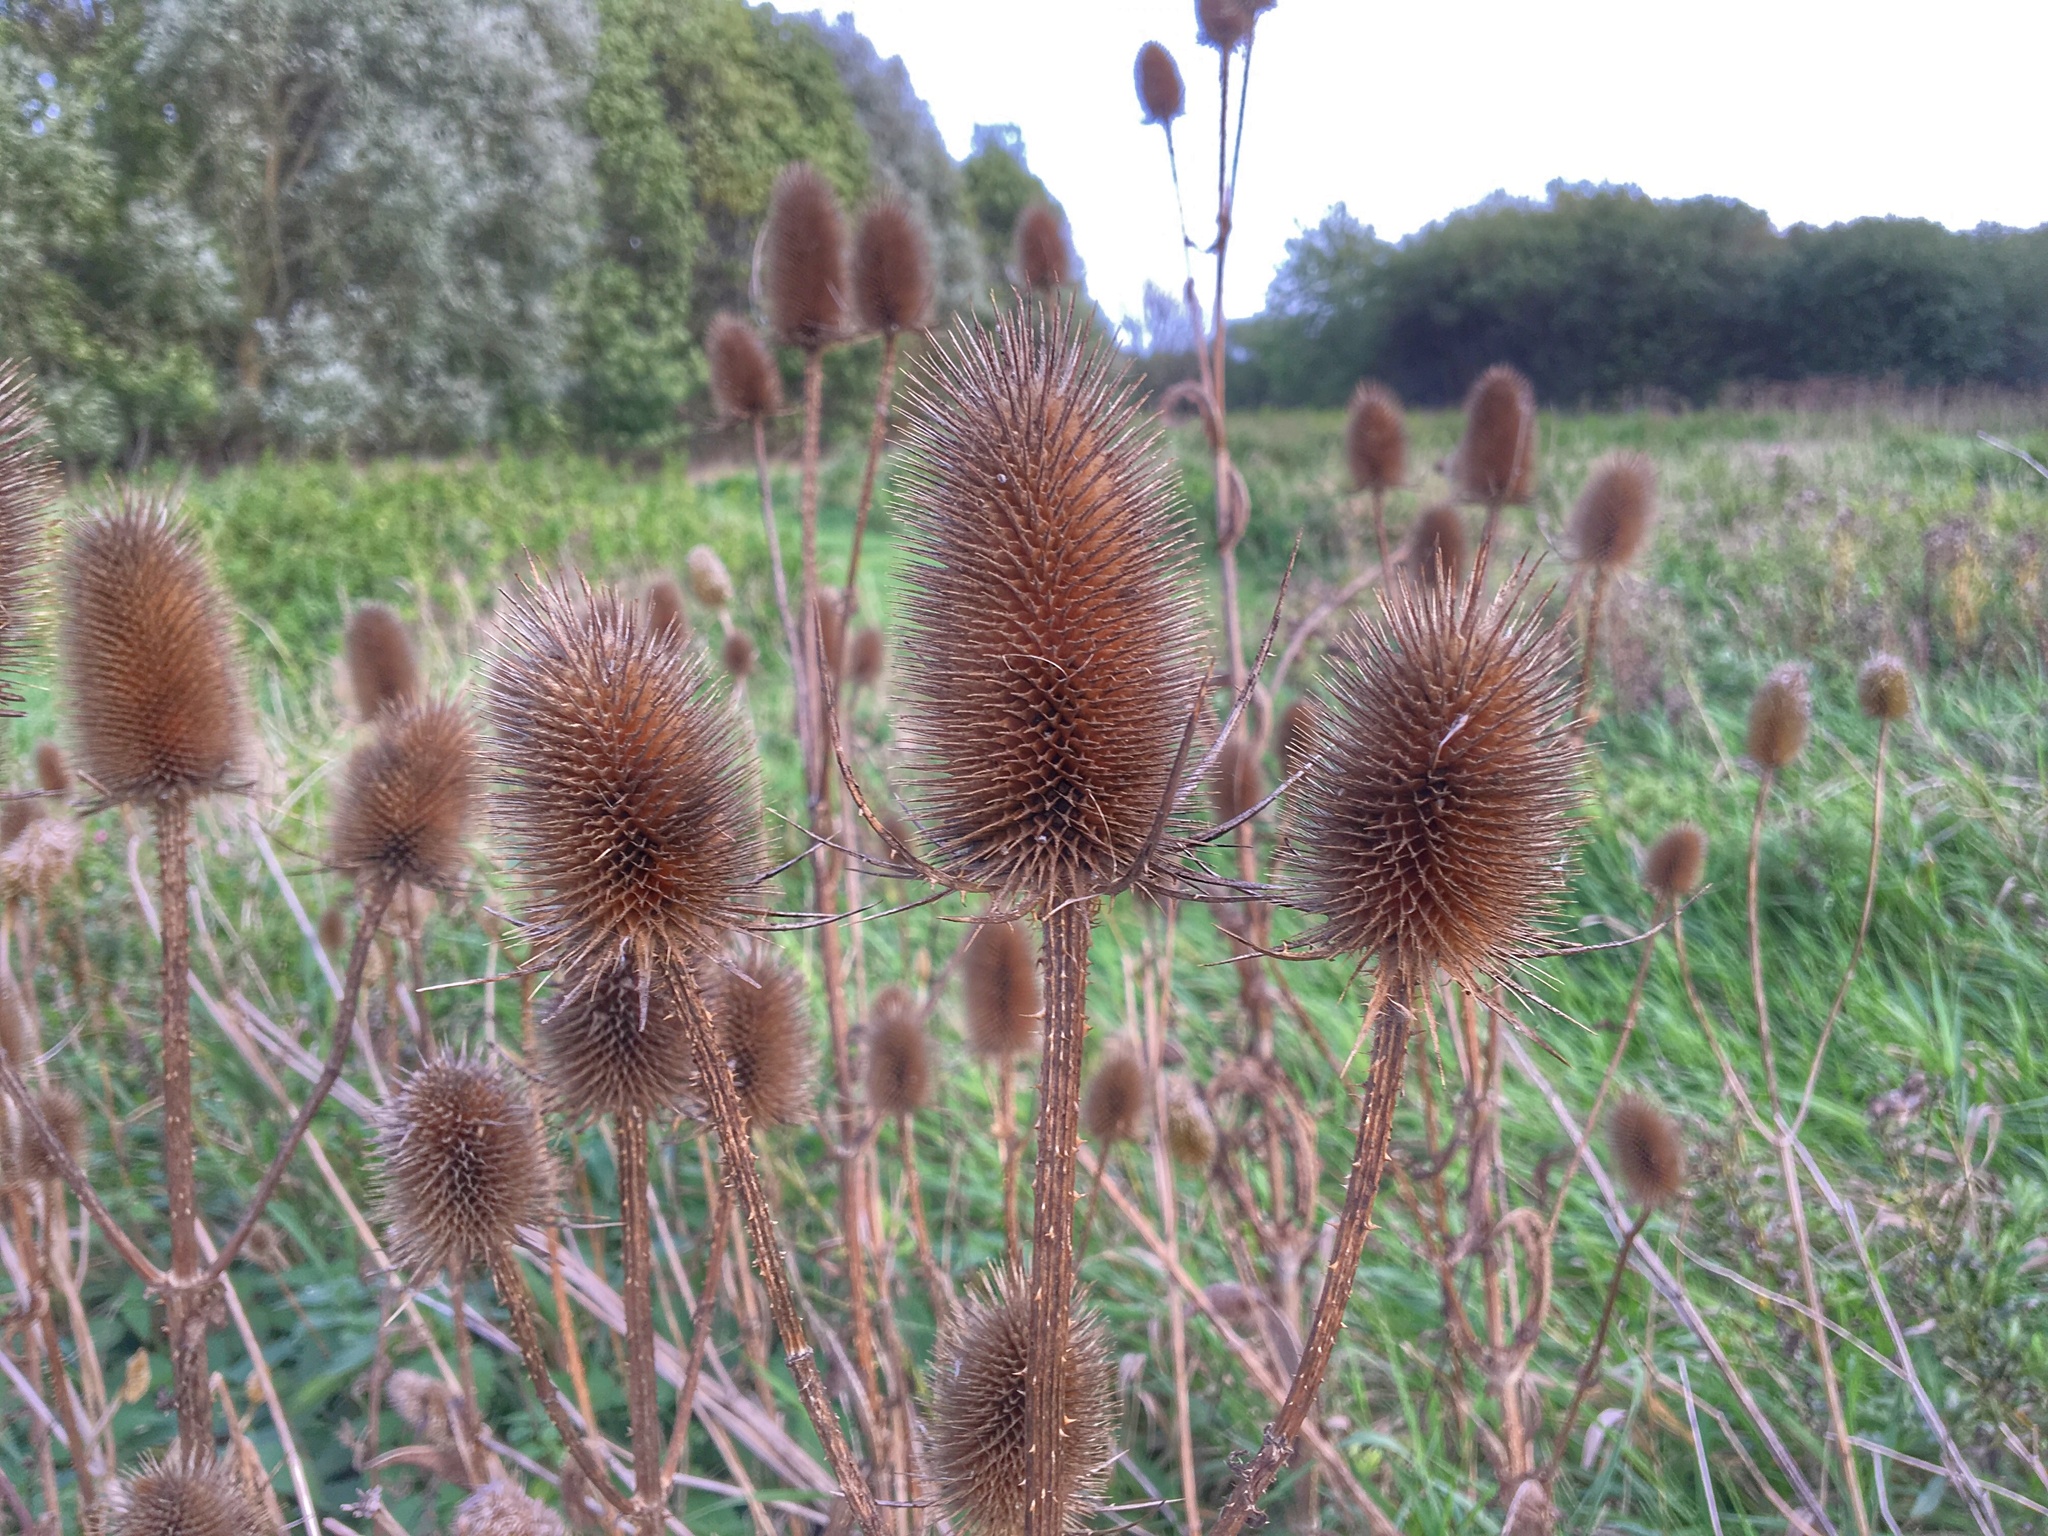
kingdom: Plantae
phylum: Tracheophyta
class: Magnoliopsida
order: Dipsacales
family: Caprifoliaceae
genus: Dipsacus
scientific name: Dipsacus fullonum
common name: Teasel
